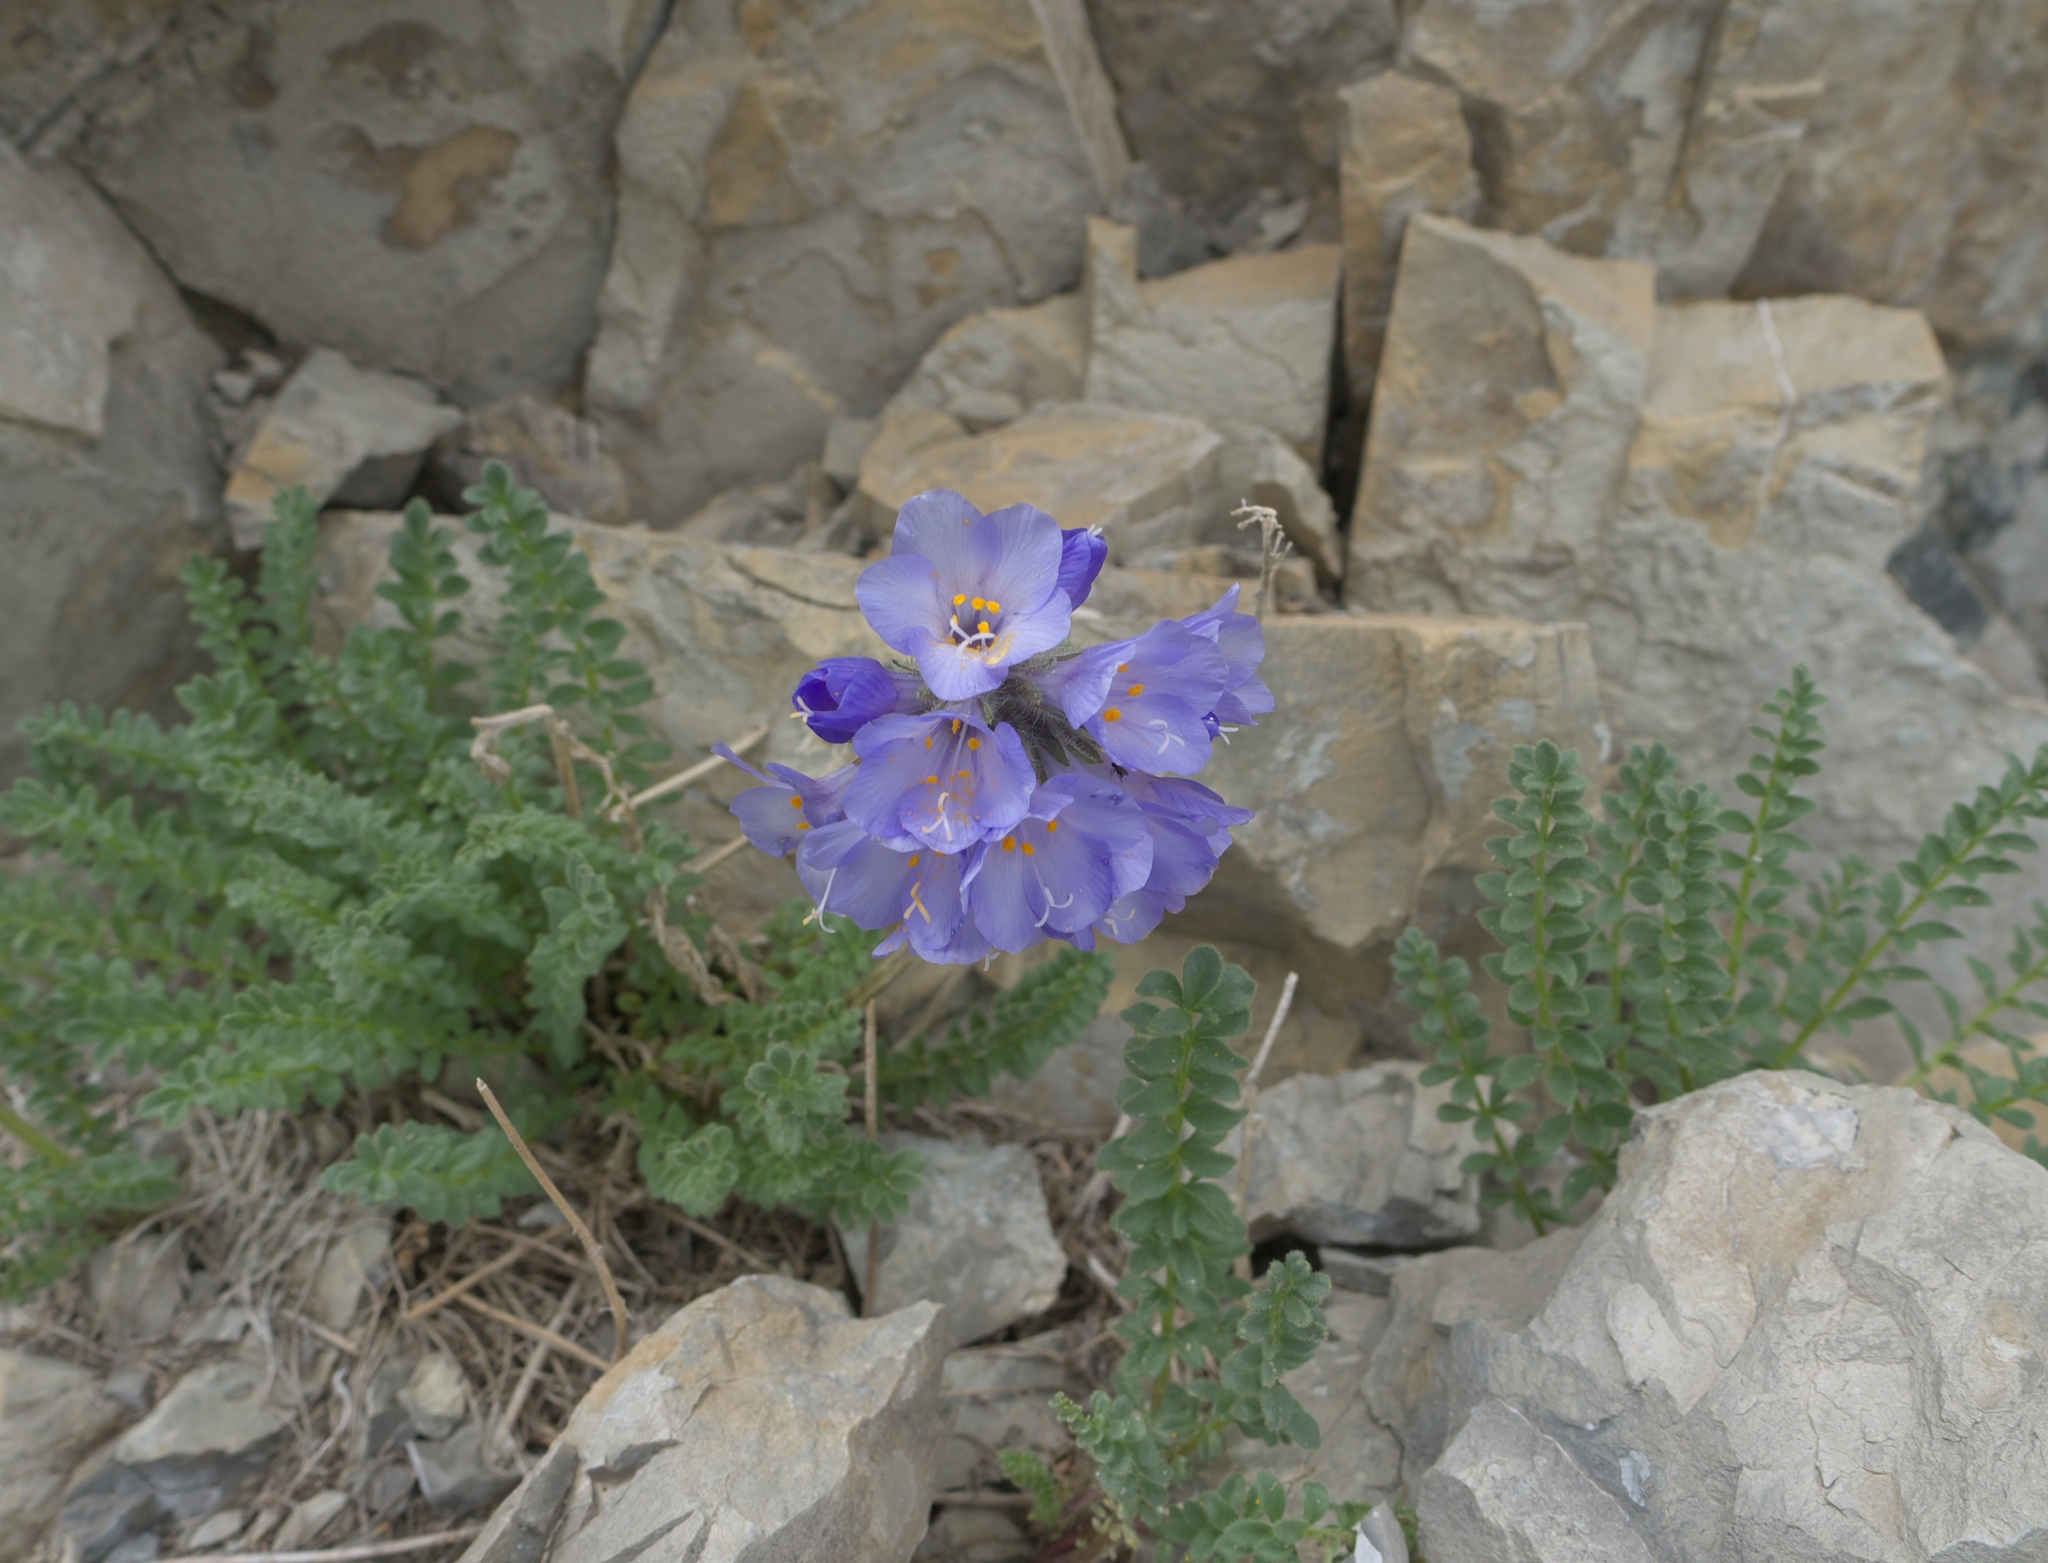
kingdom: Plantae
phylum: Tracheophyta
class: Magnoliopsida
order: Ericales
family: Polemoniaceae
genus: Polemonium
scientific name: Polemonium viscosum
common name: Skunk jacob's-ladder
